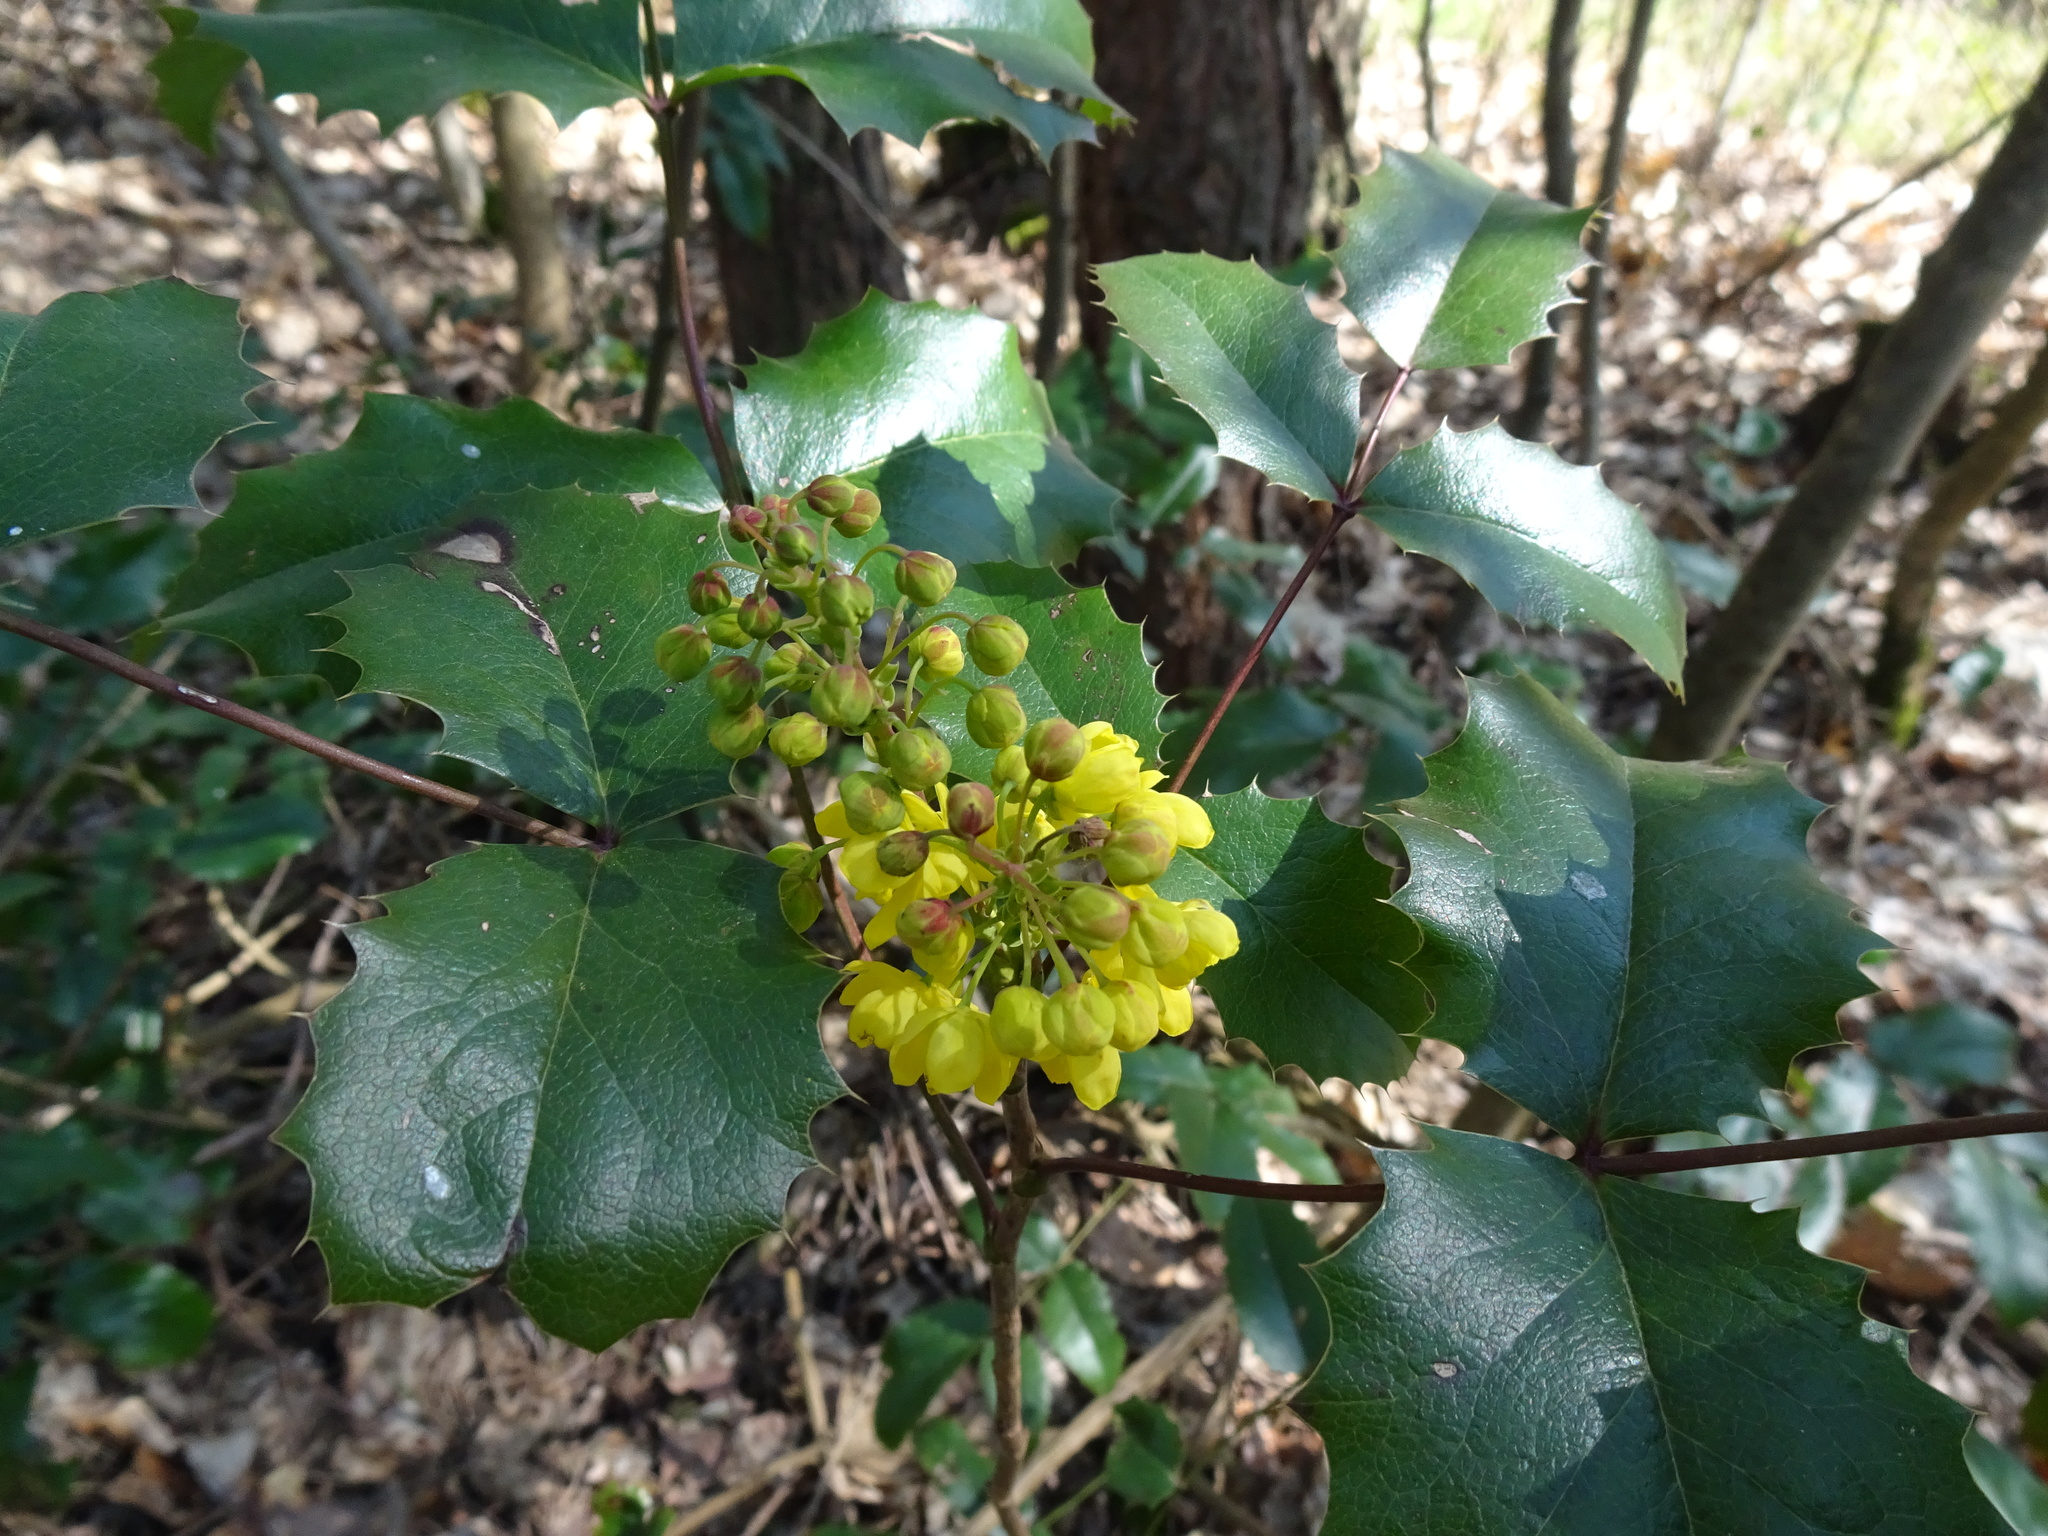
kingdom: Plantae
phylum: Tracheophyta
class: Magnoliopsida
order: Ranunculales
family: Berberidaceae
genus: Mahonia
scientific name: Mahonia aquifolium
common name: Oregon-grape
